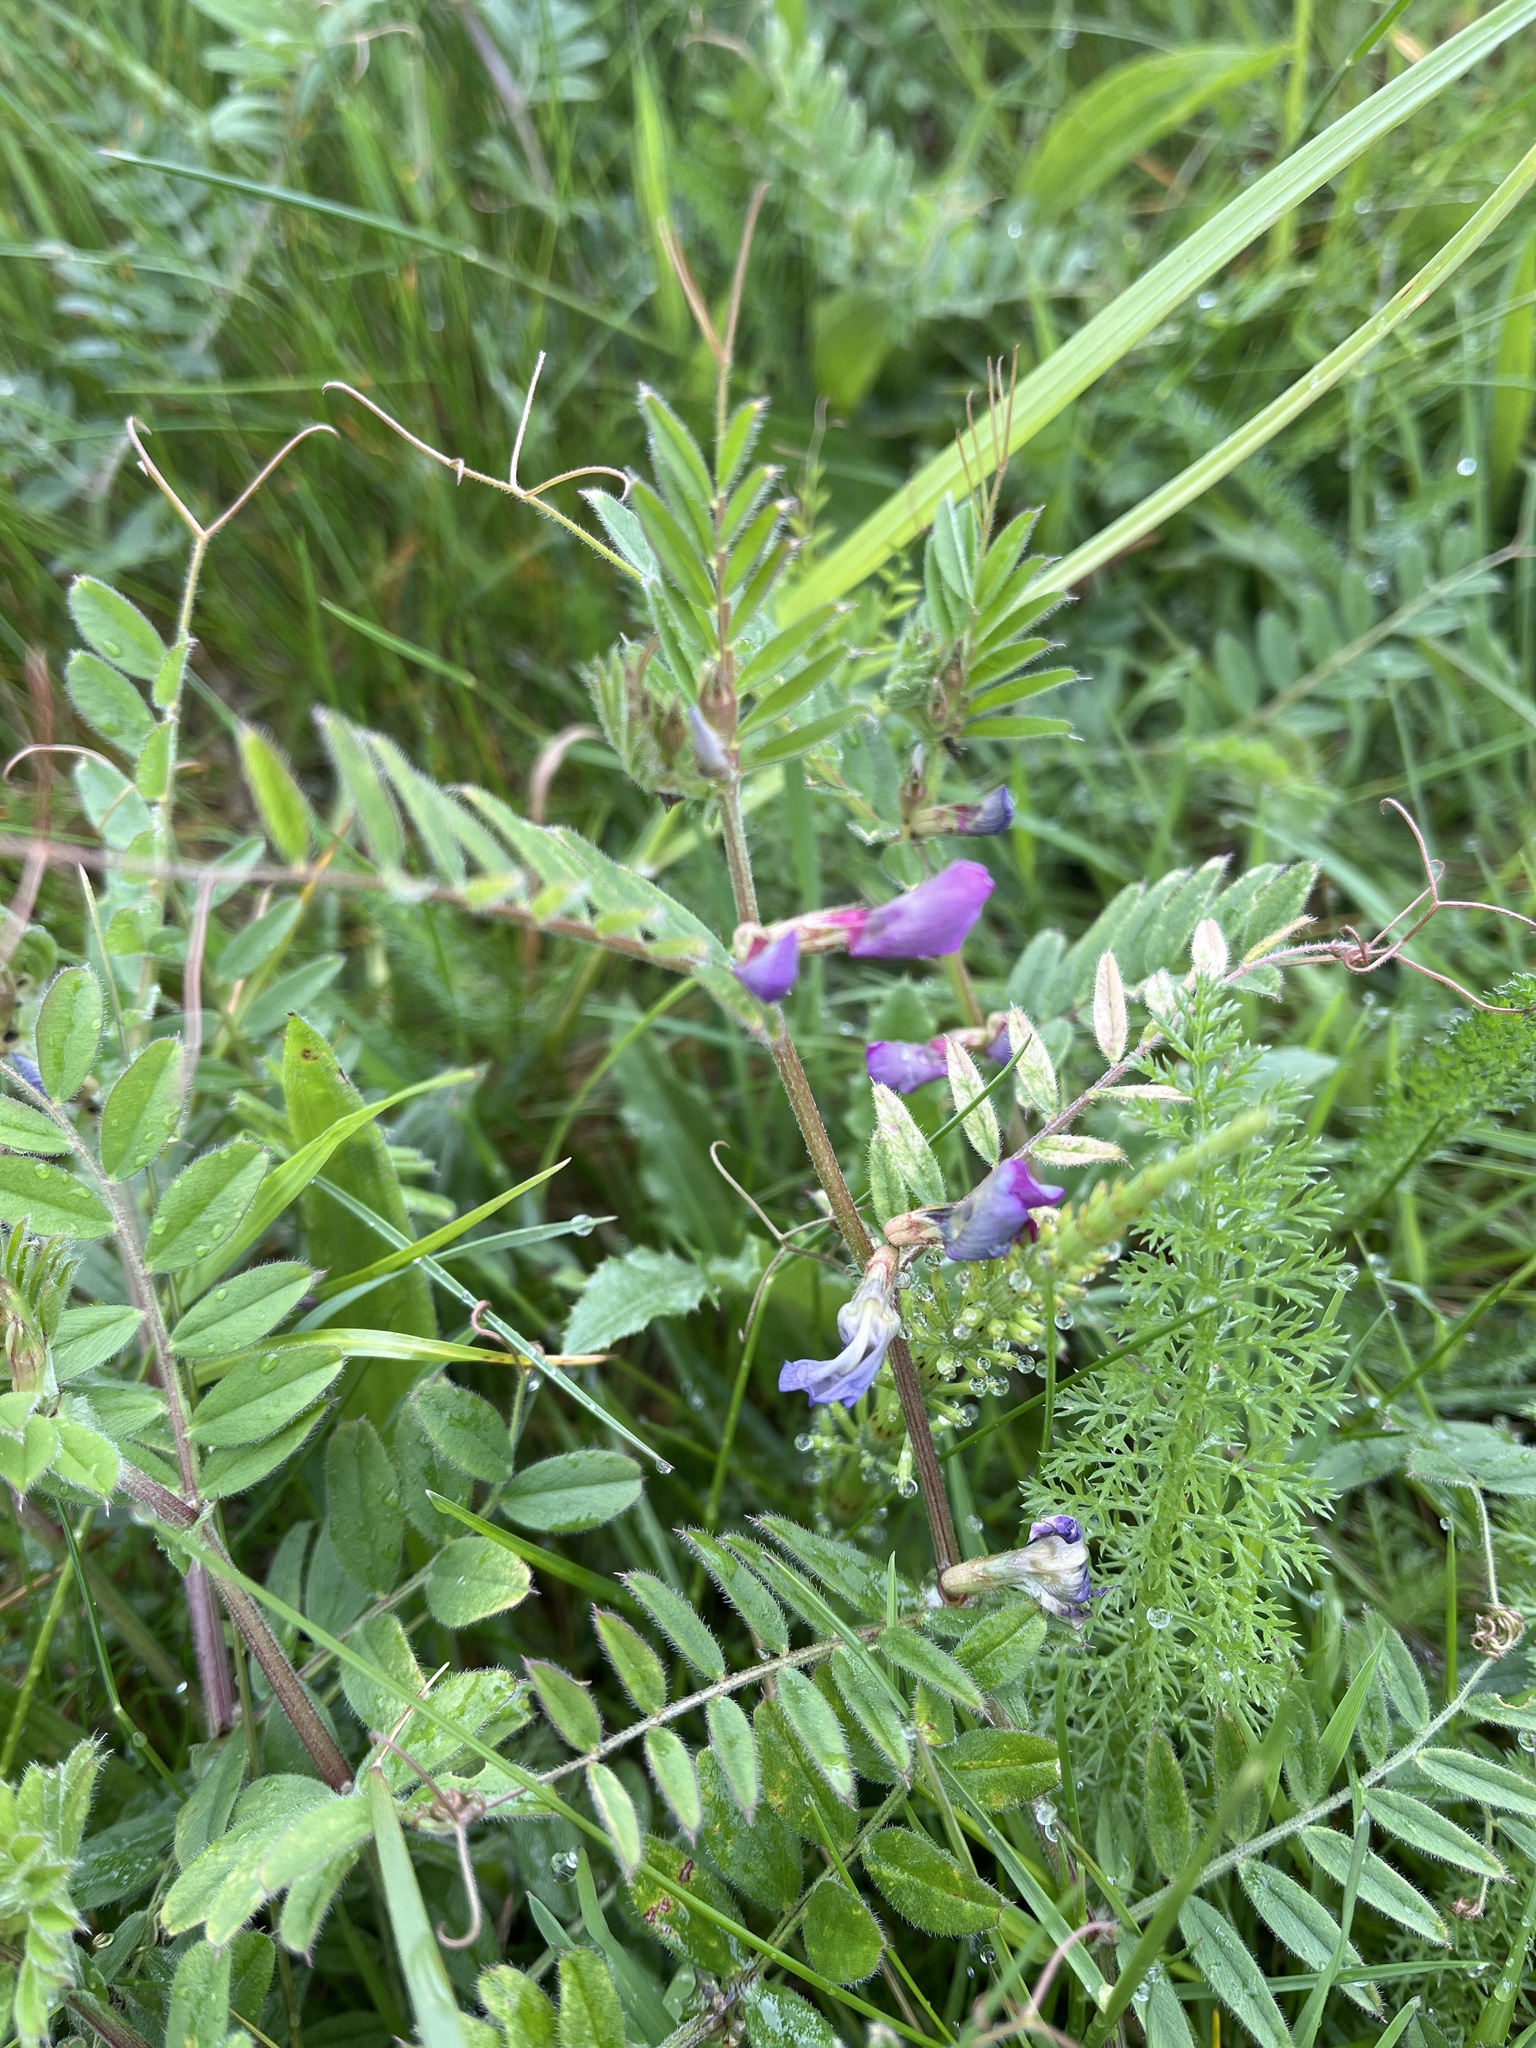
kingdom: Plantae
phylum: Tracheophyta
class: Magnoliopsida
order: Fabales
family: Fabaceae
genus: Vicia
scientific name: Vicia sativa
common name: Garden vetch
